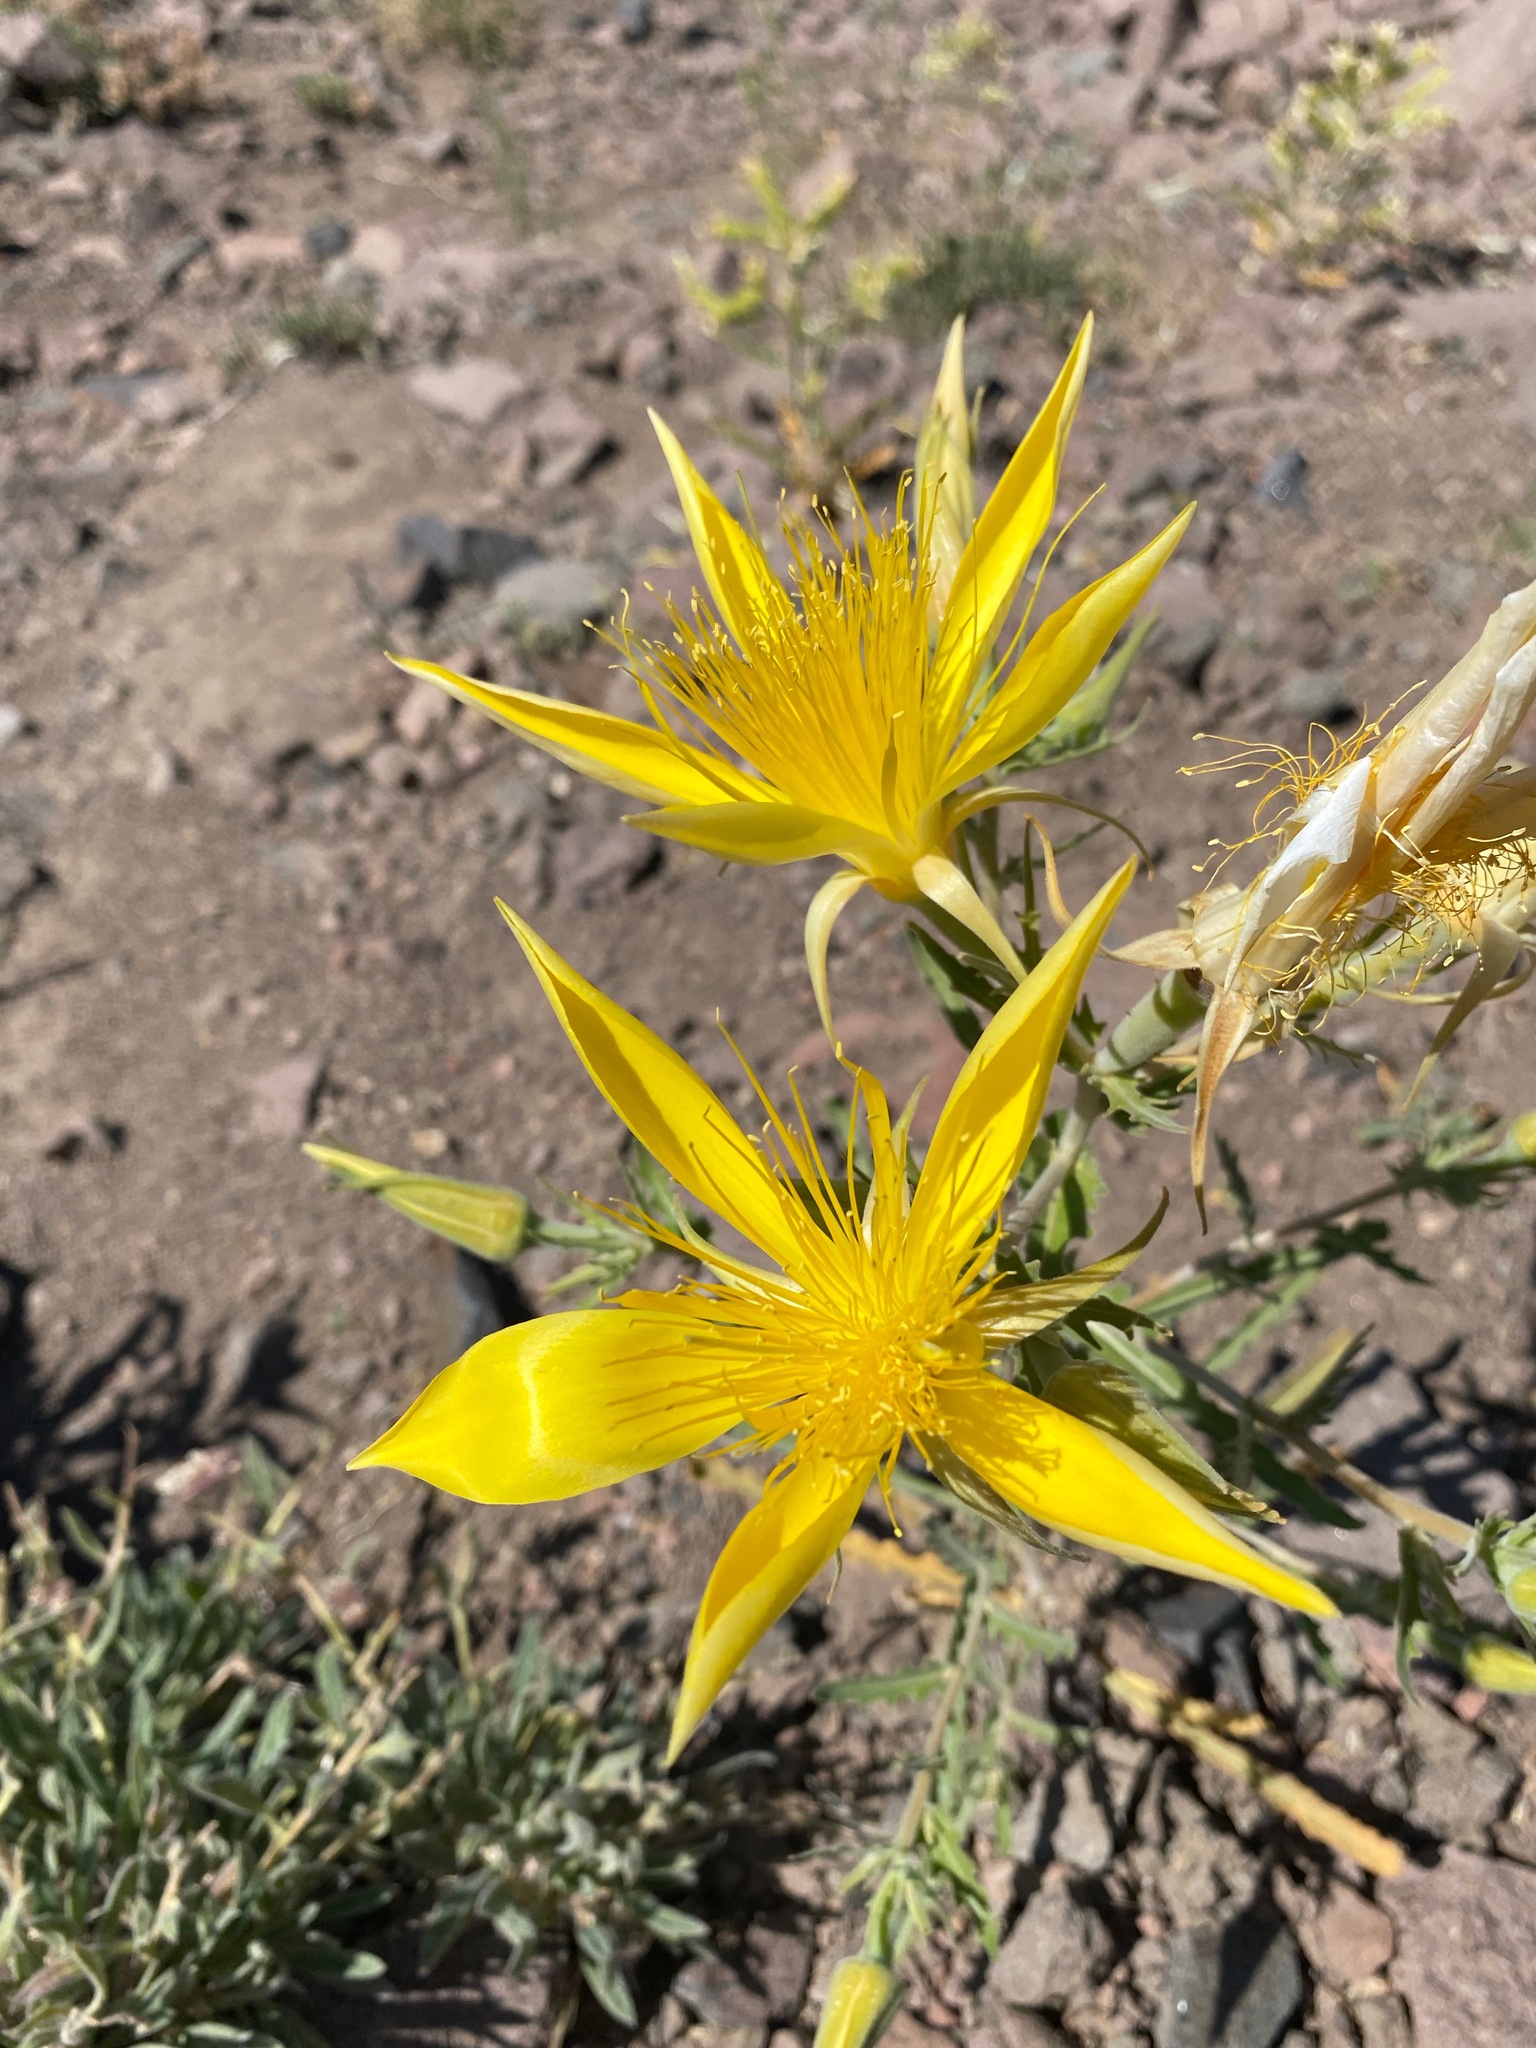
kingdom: Plantae
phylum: Tracheophyta
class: Magnoliopsida
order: Cornales
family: Loasaceae
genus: Mentzelia
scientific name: Mentzelia laevicaulis
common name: Smooth-stem blazingstar
